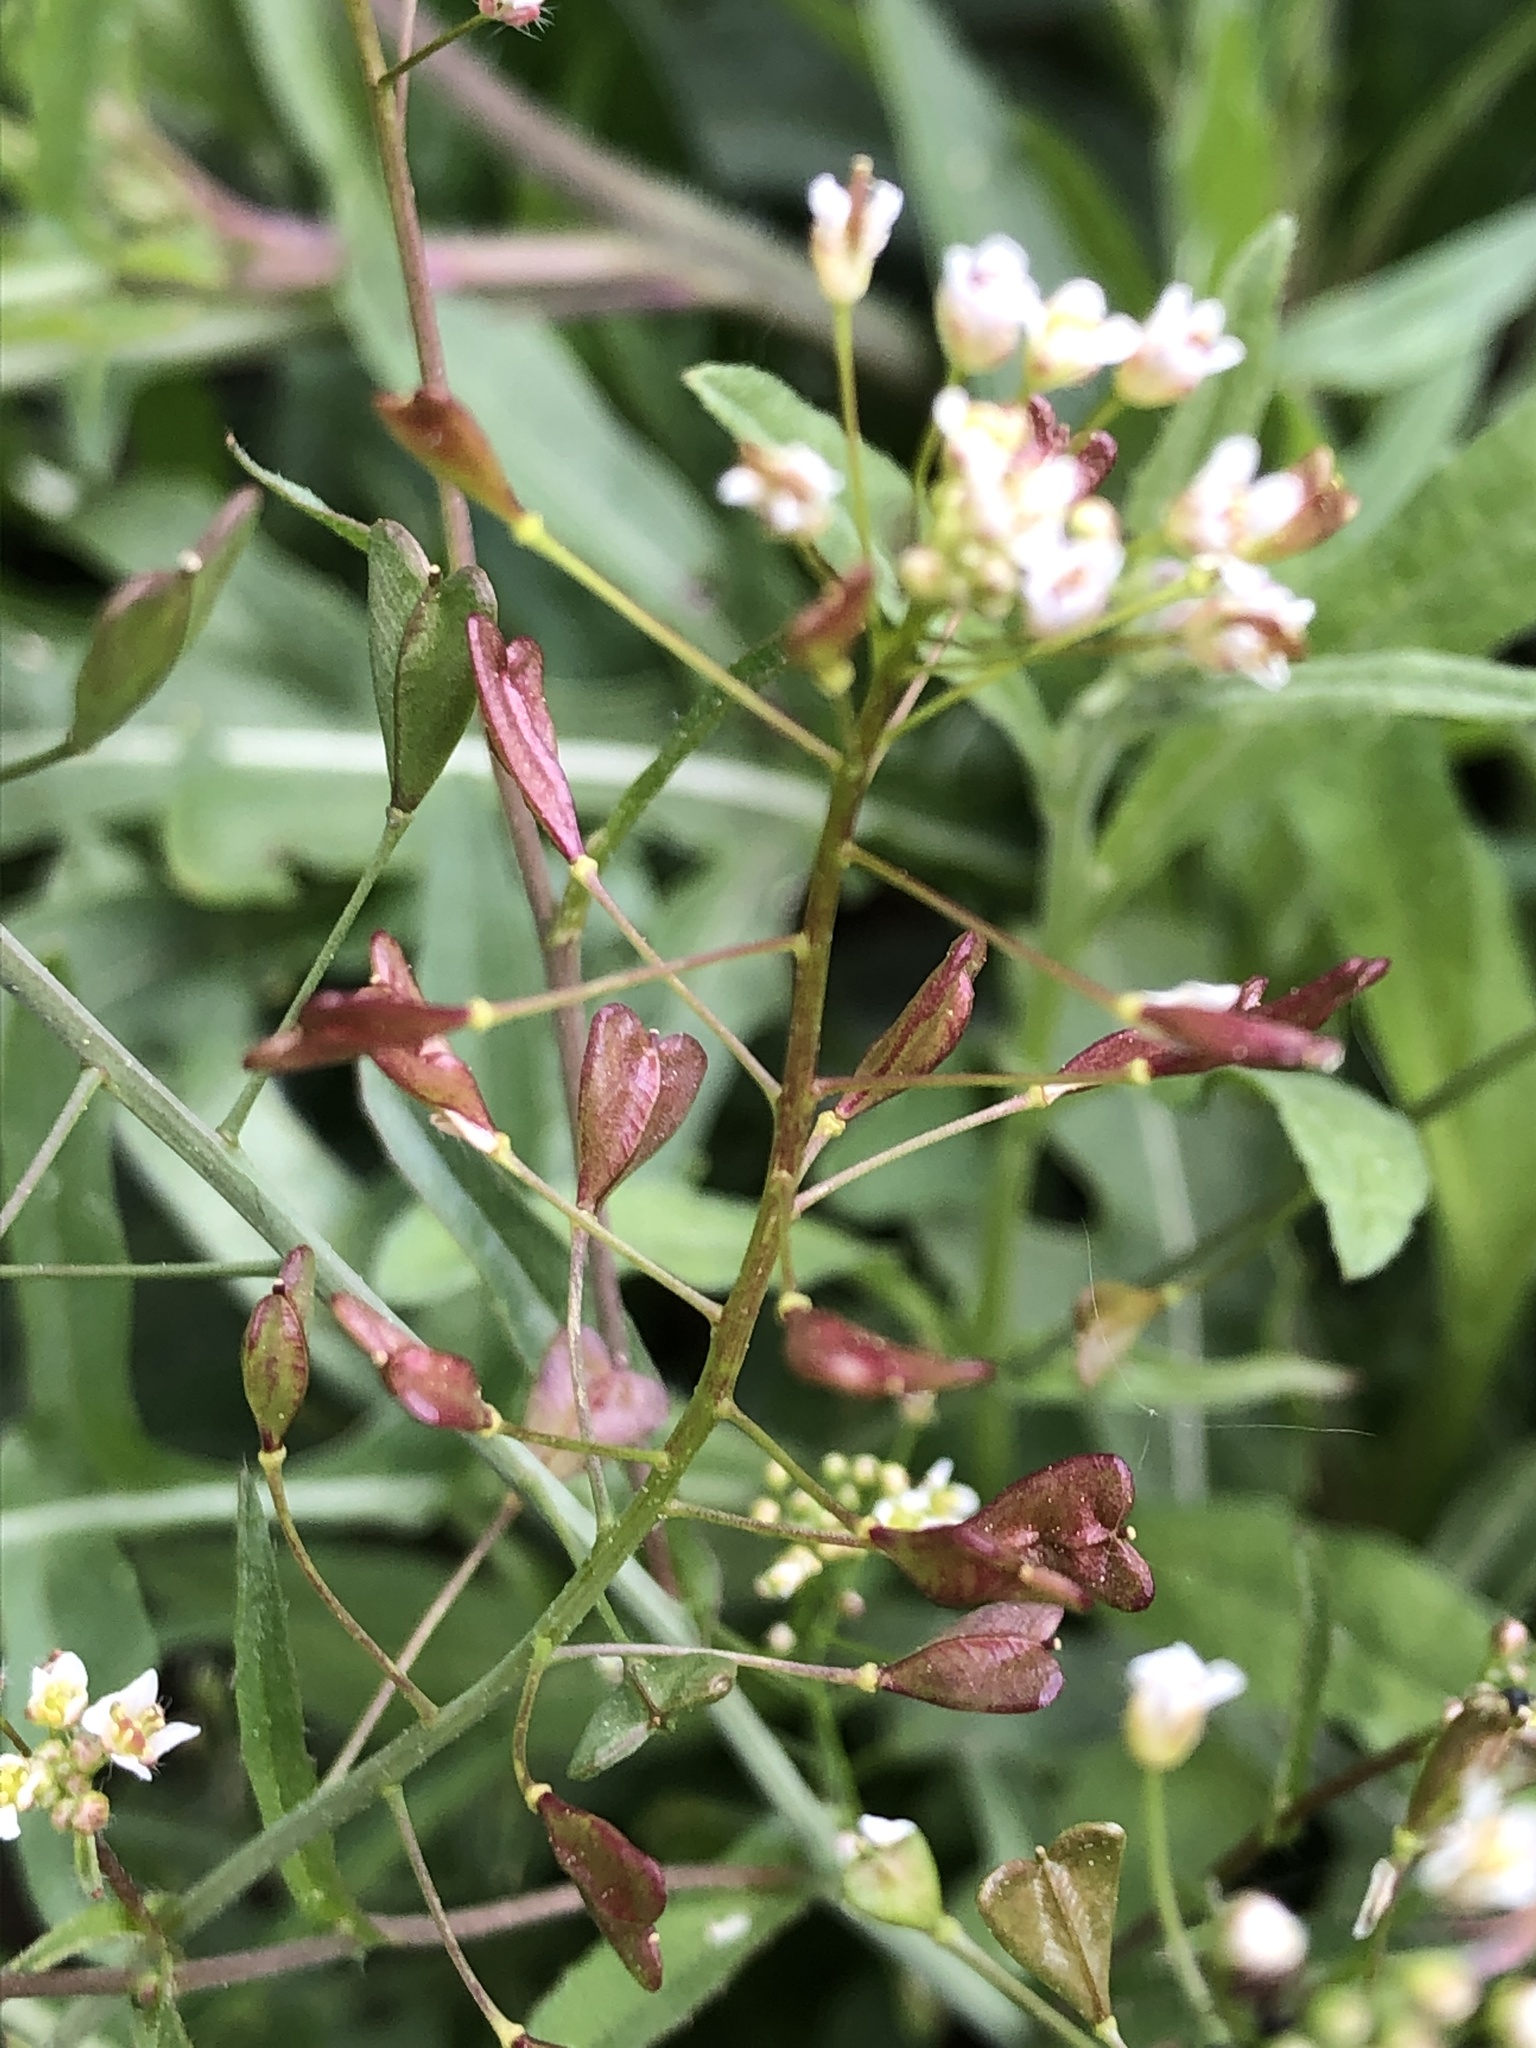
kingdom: Plantae
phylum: Tracheophyta
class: Magnoliopsida
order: Brassicales
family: Brassicaceae
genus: Capsella
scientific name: Capsella bursa-pastoris
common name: Shepherd's purse
